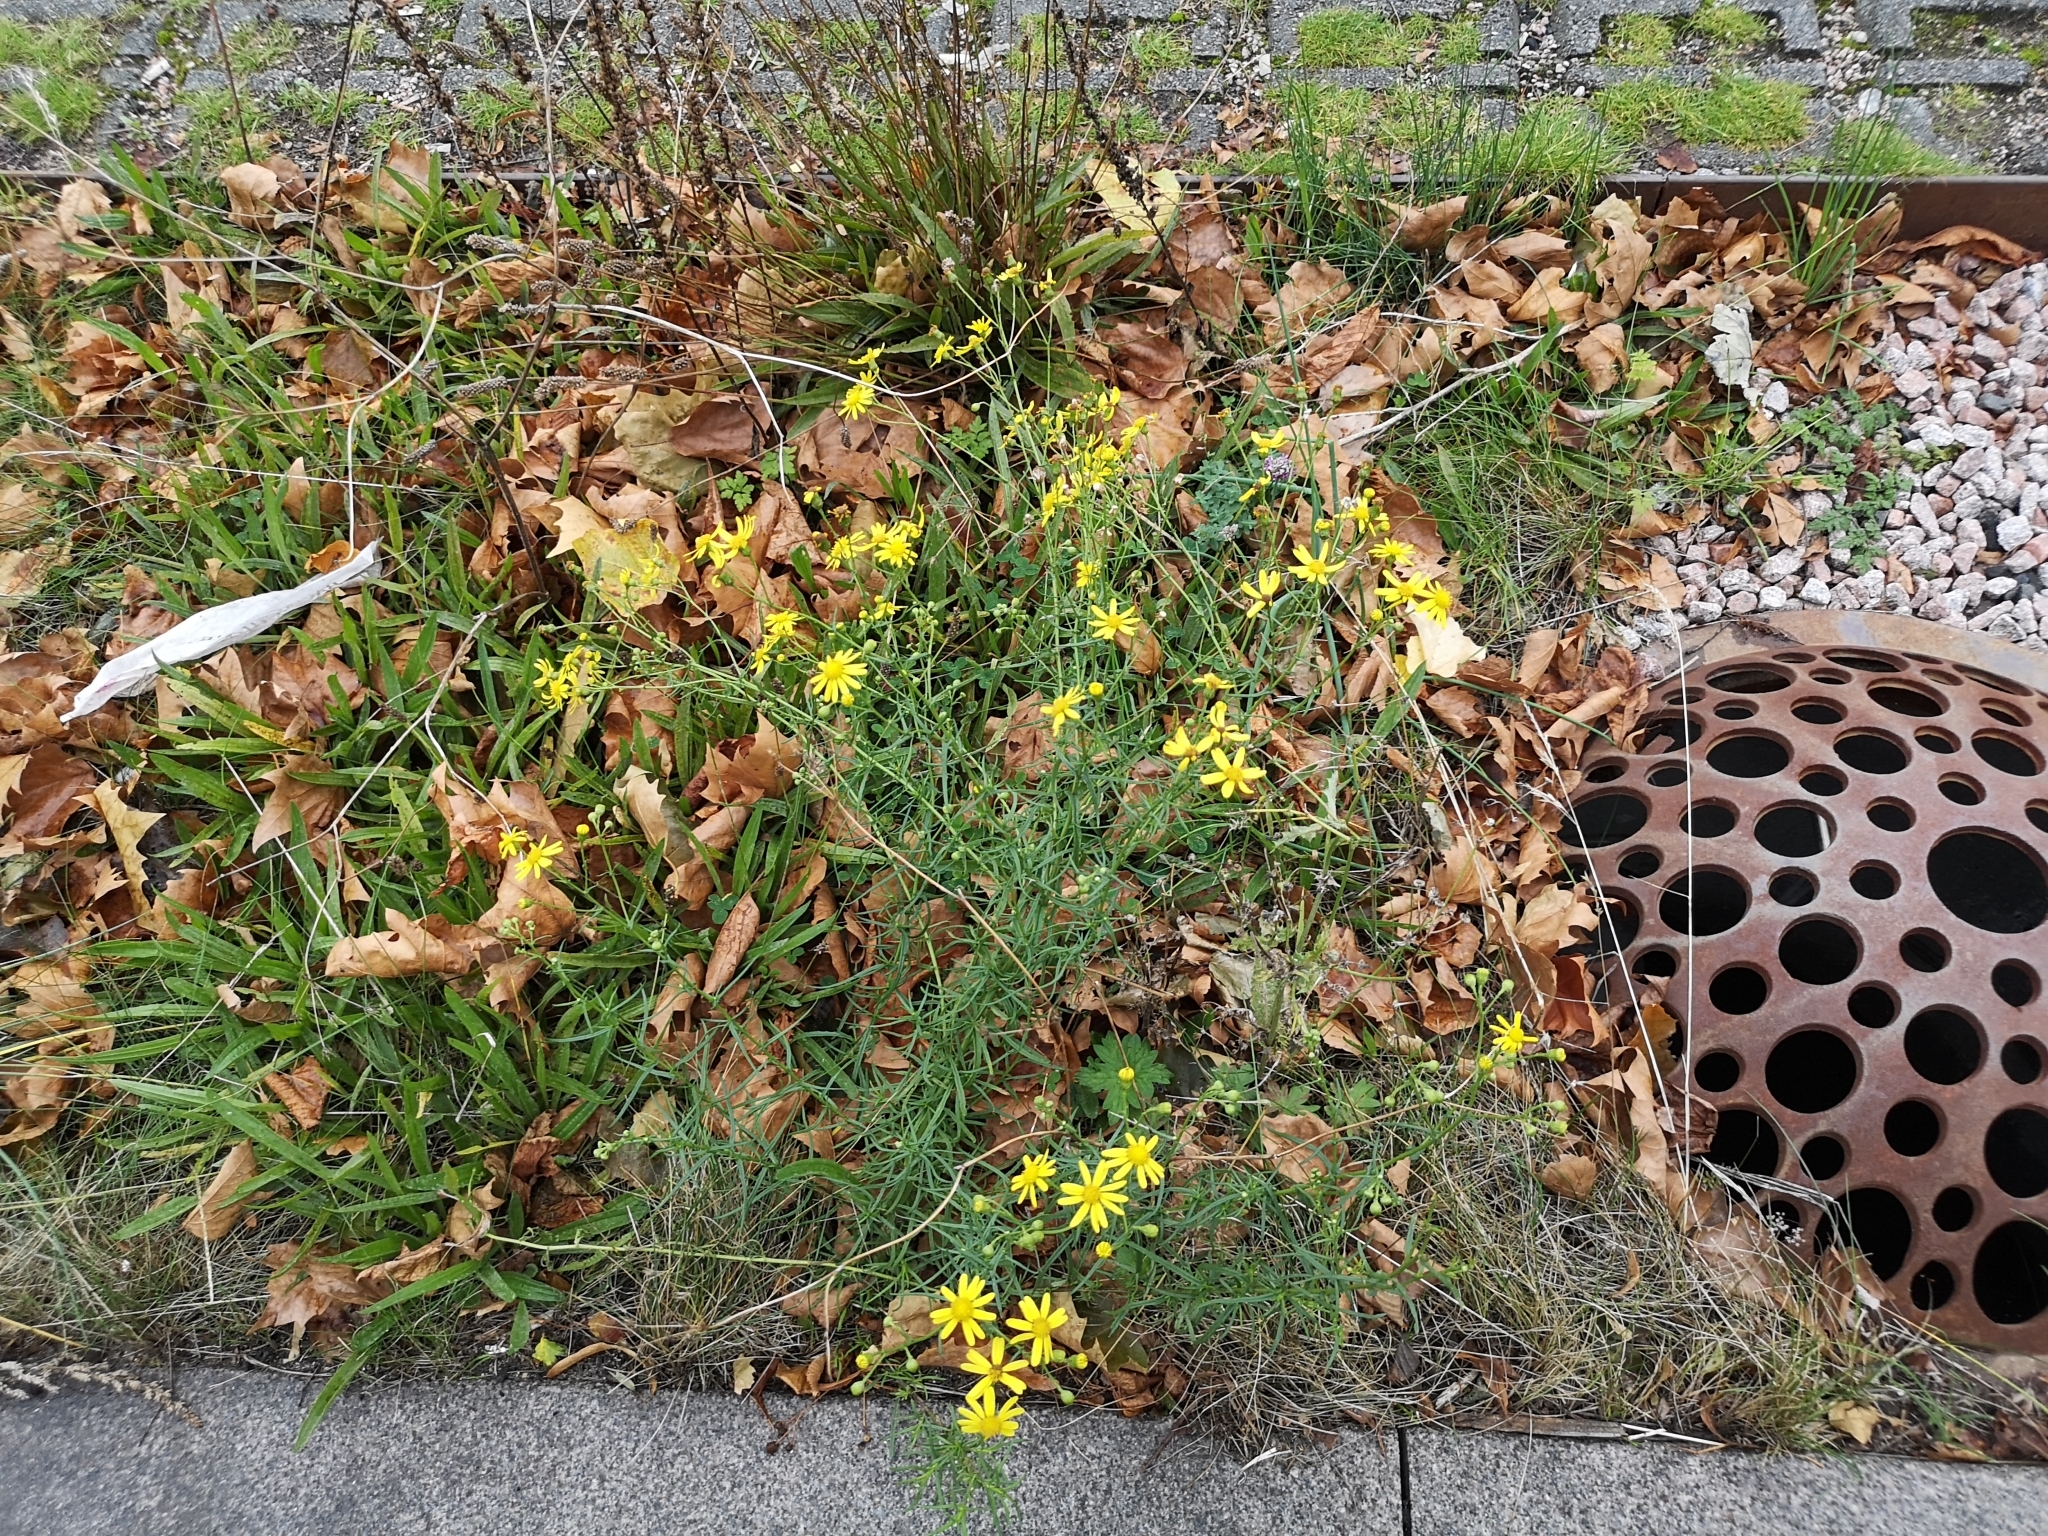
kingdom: Plantae
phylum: Tracheophyta
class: Magnoliopsida
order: Asterales
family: Asteraceae
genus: Senecio
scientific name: Senecio inaequidens
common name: Narrow-leaved ragwort
